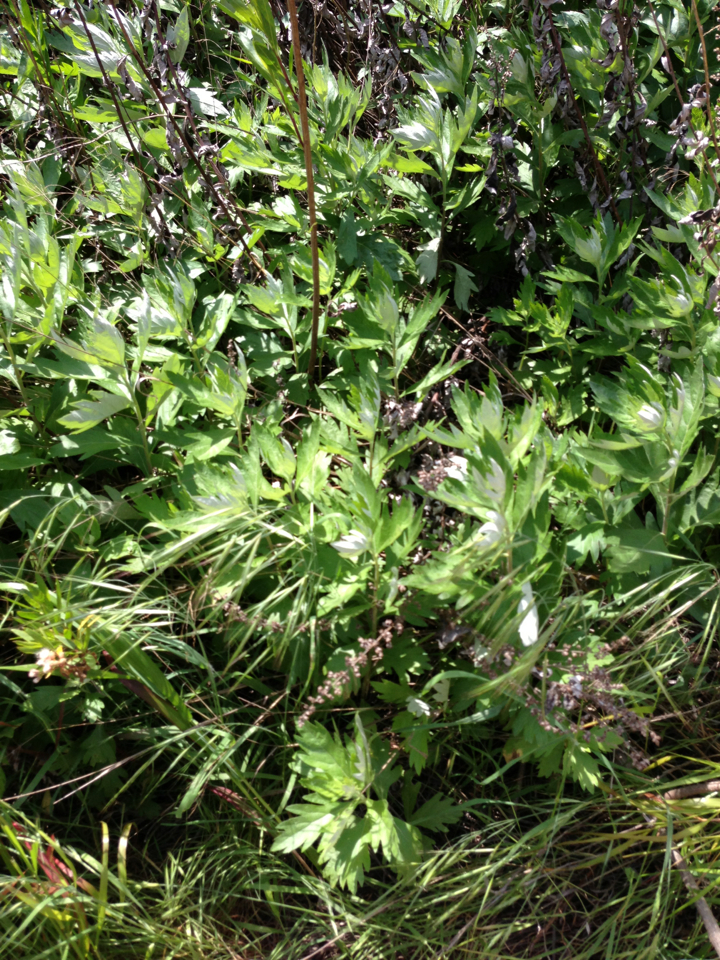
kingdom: Plantae
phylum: Tracheophyta
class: Magnoliopsida
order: Asterales
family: Asteraceae
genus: Artemisia
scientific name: Artemisia douglasiana
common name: Northwest mugwort
